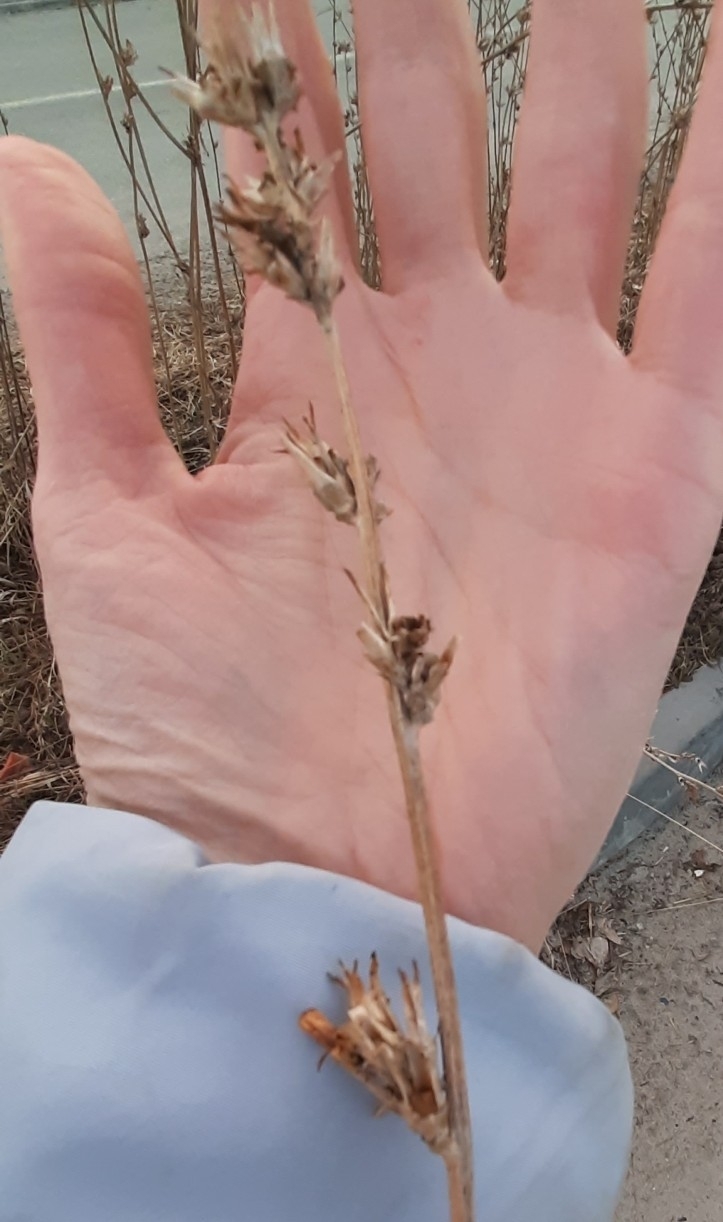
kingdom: Plantae
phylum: Tracheophyta
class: Magnoliopsida
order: Asterales
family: Asteraceae
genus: Cichorium
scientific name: Cichorium intybus
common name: Chicory
